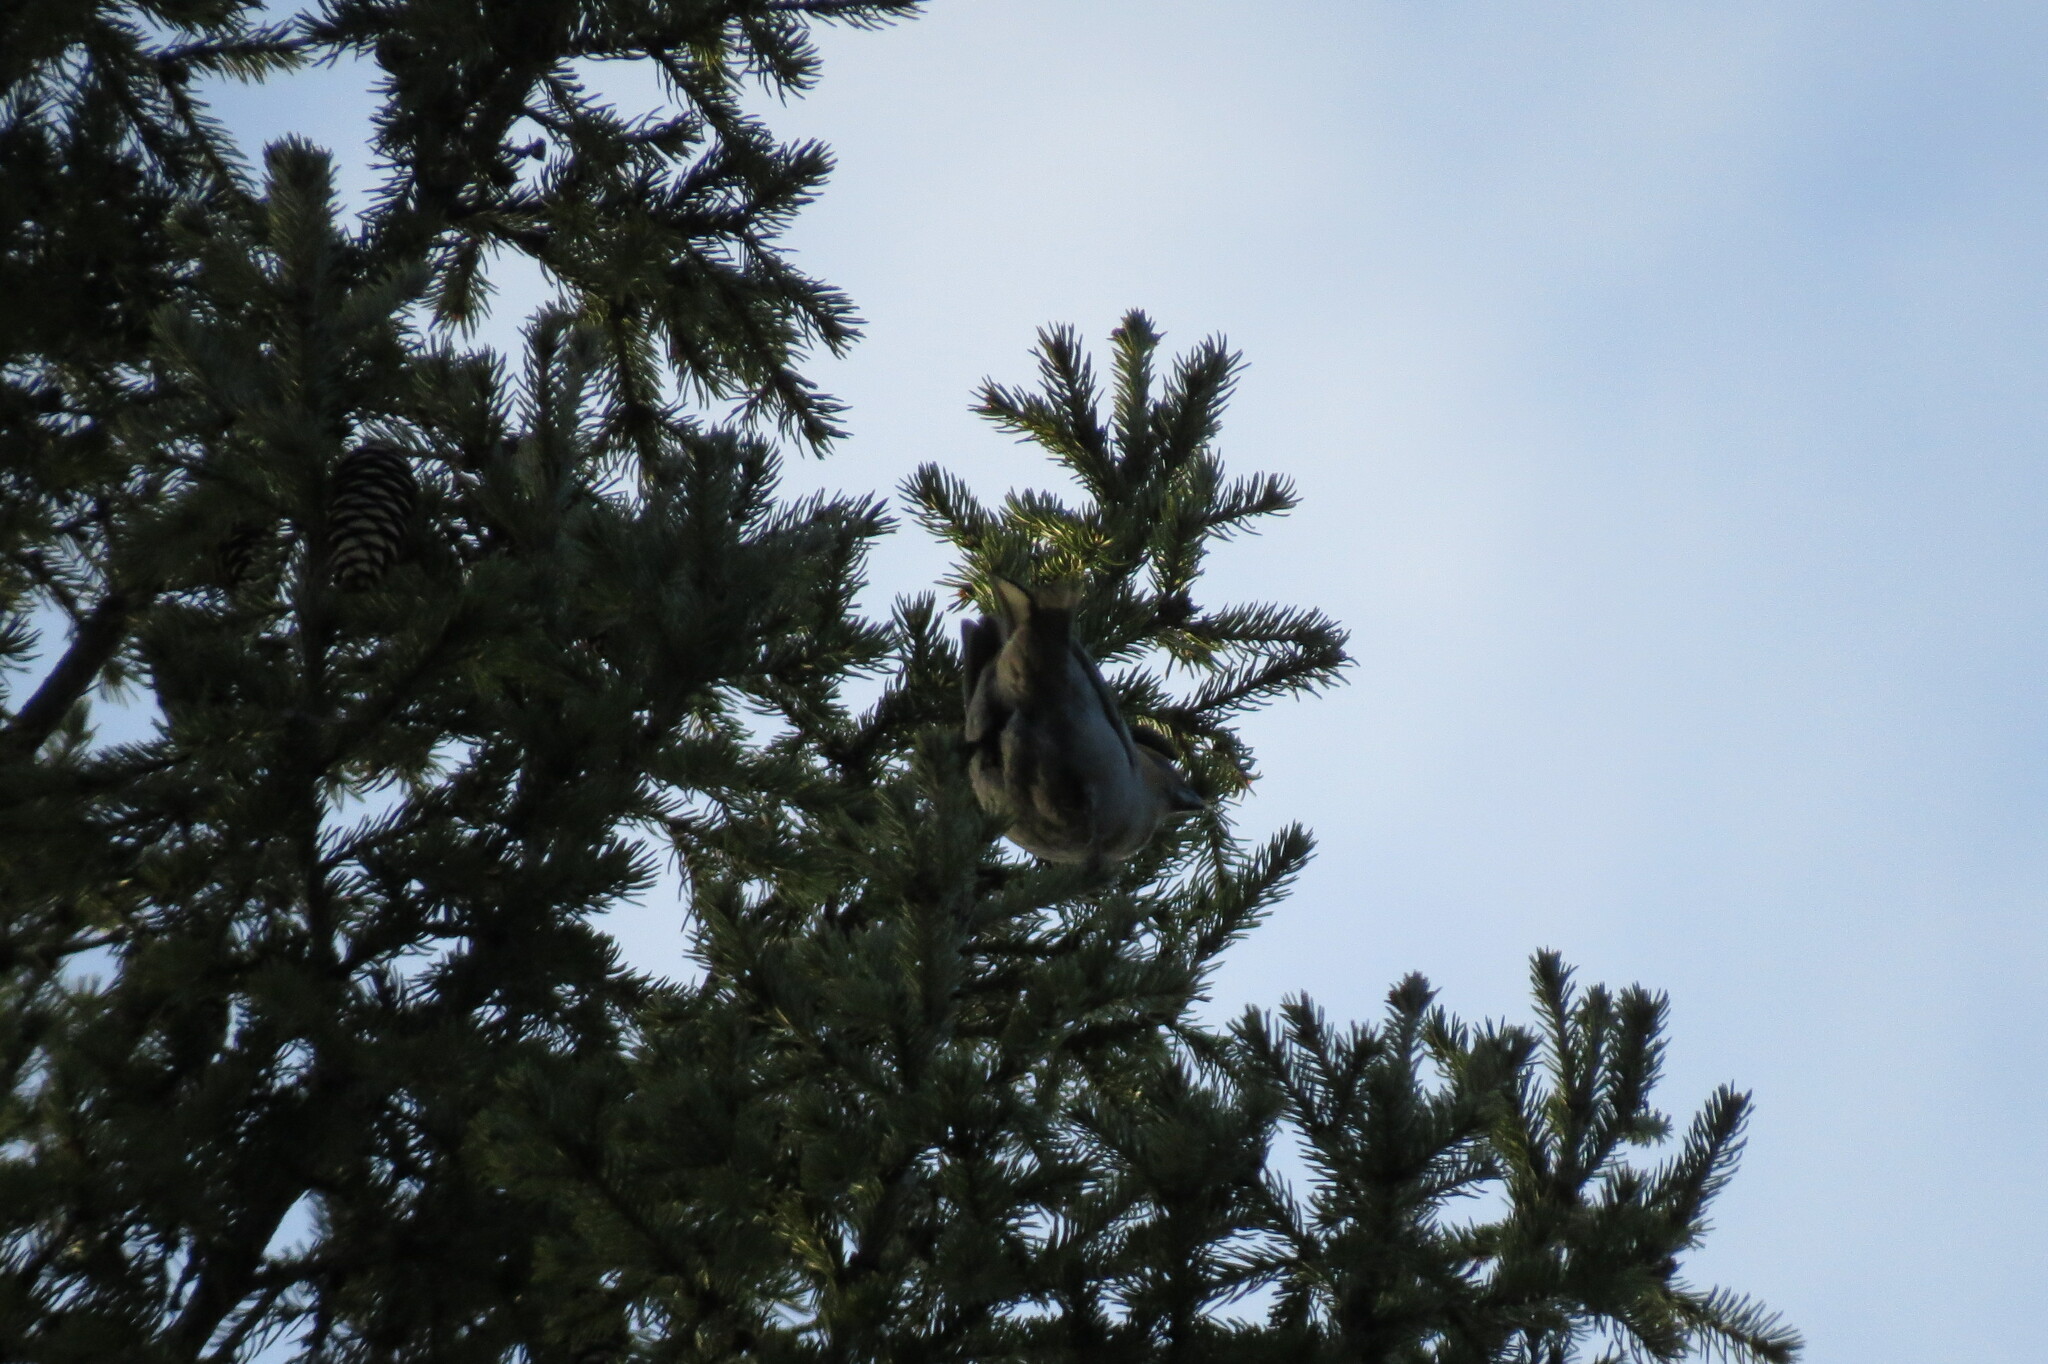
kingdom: Animalia
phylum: Chordata
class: Aves
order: Passeriformes
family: Fringillidae
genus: Loxia
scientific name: Loxia curvirostra
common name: Red crossbill
